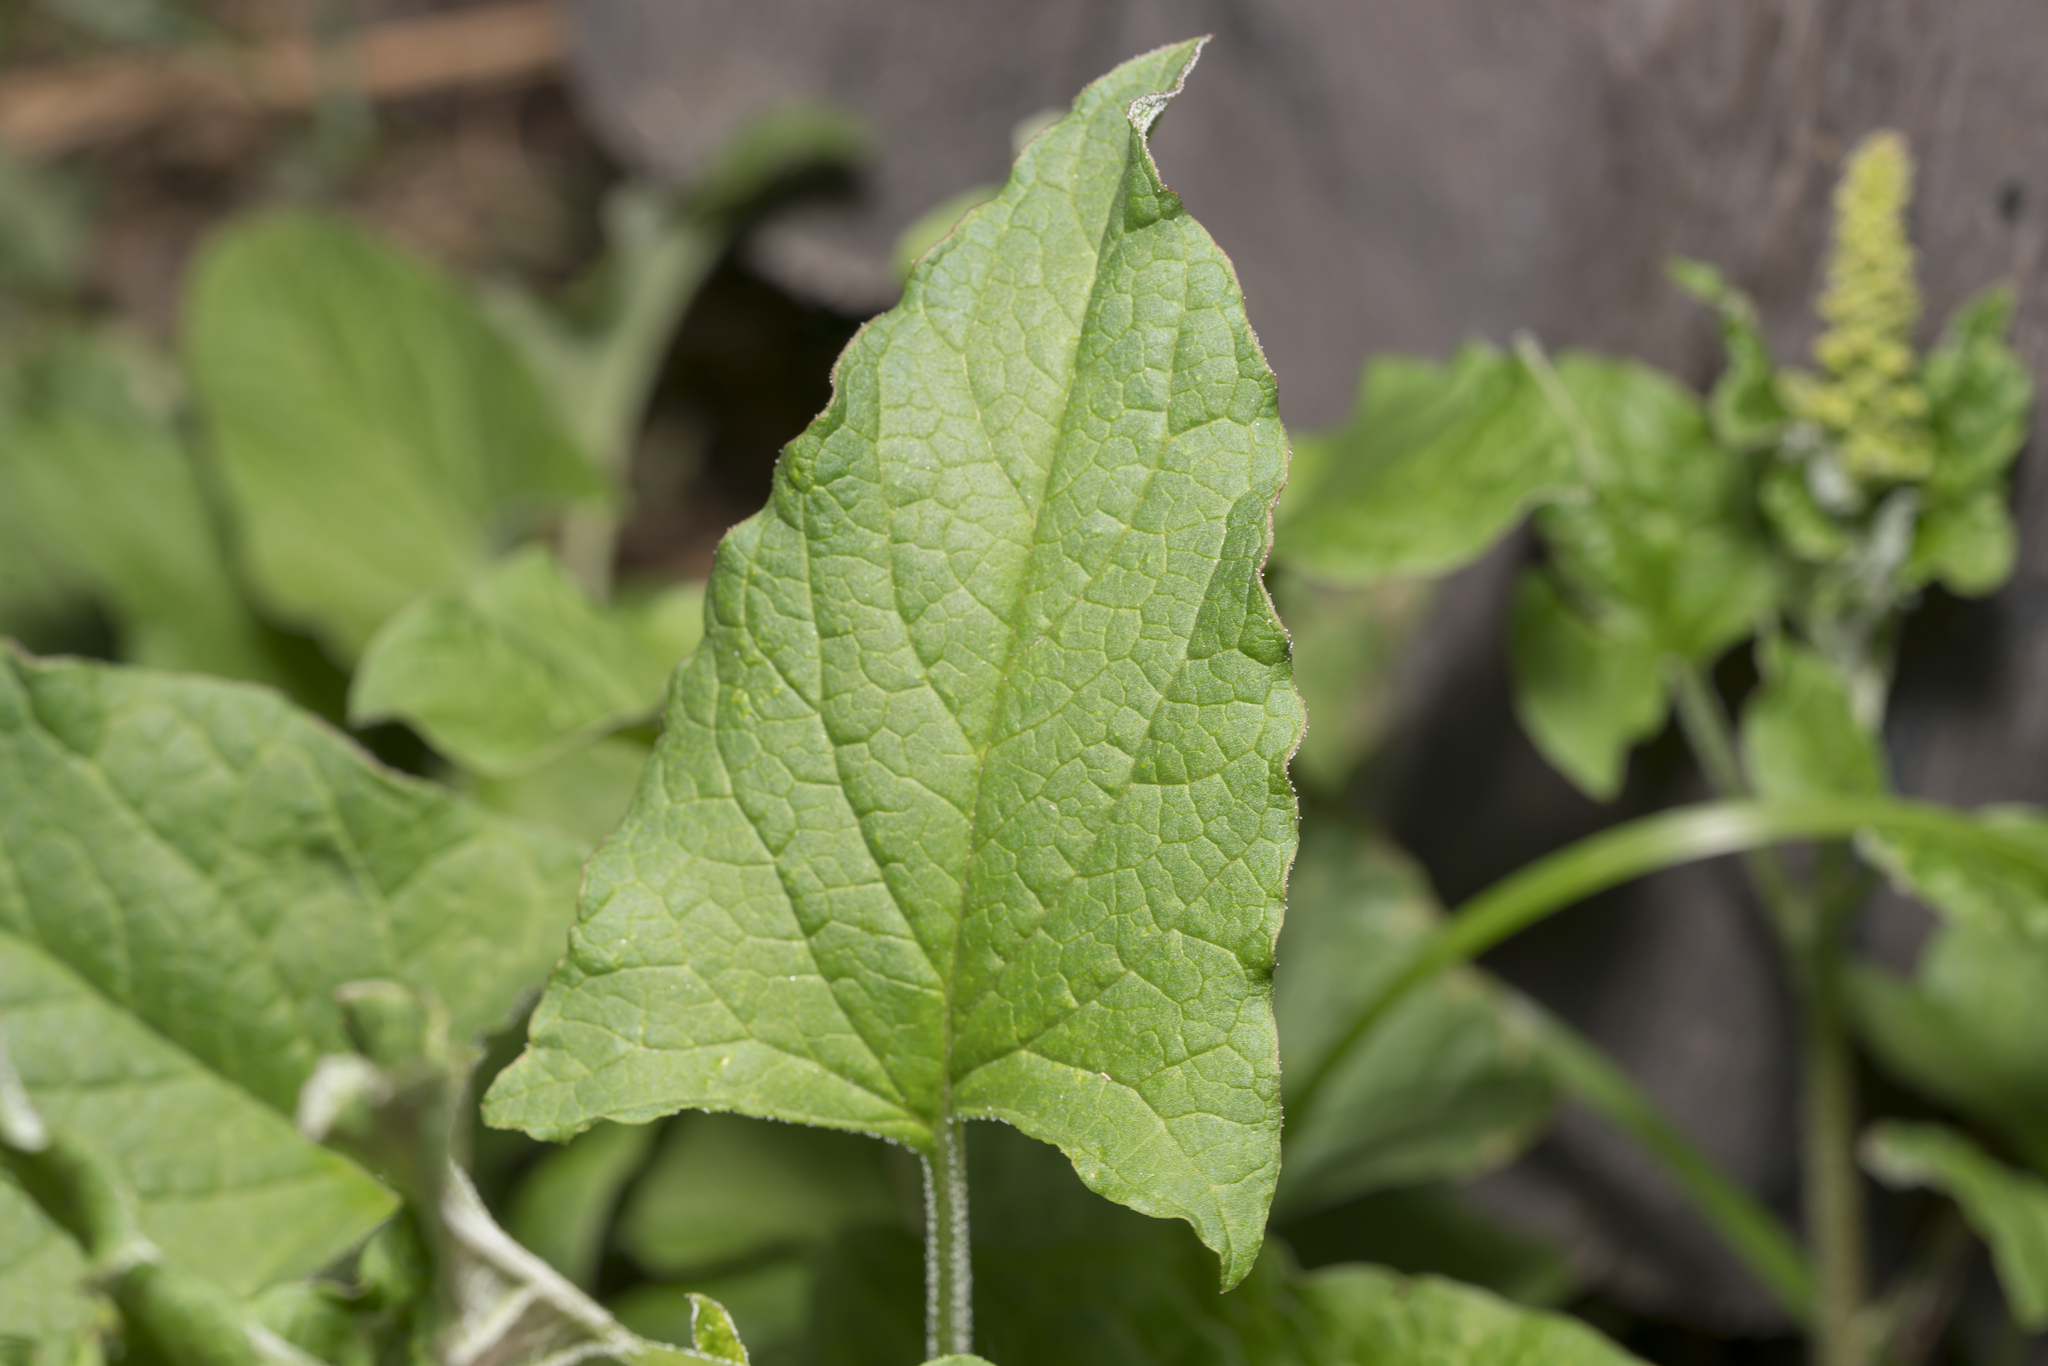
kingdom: Plantae
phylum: Tracheophyta
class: Magnoliopsida
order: Caryophyllales
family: Amaranthaceae
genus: Blitum
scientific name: Blitum bonus-henricus
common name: Good king henry
